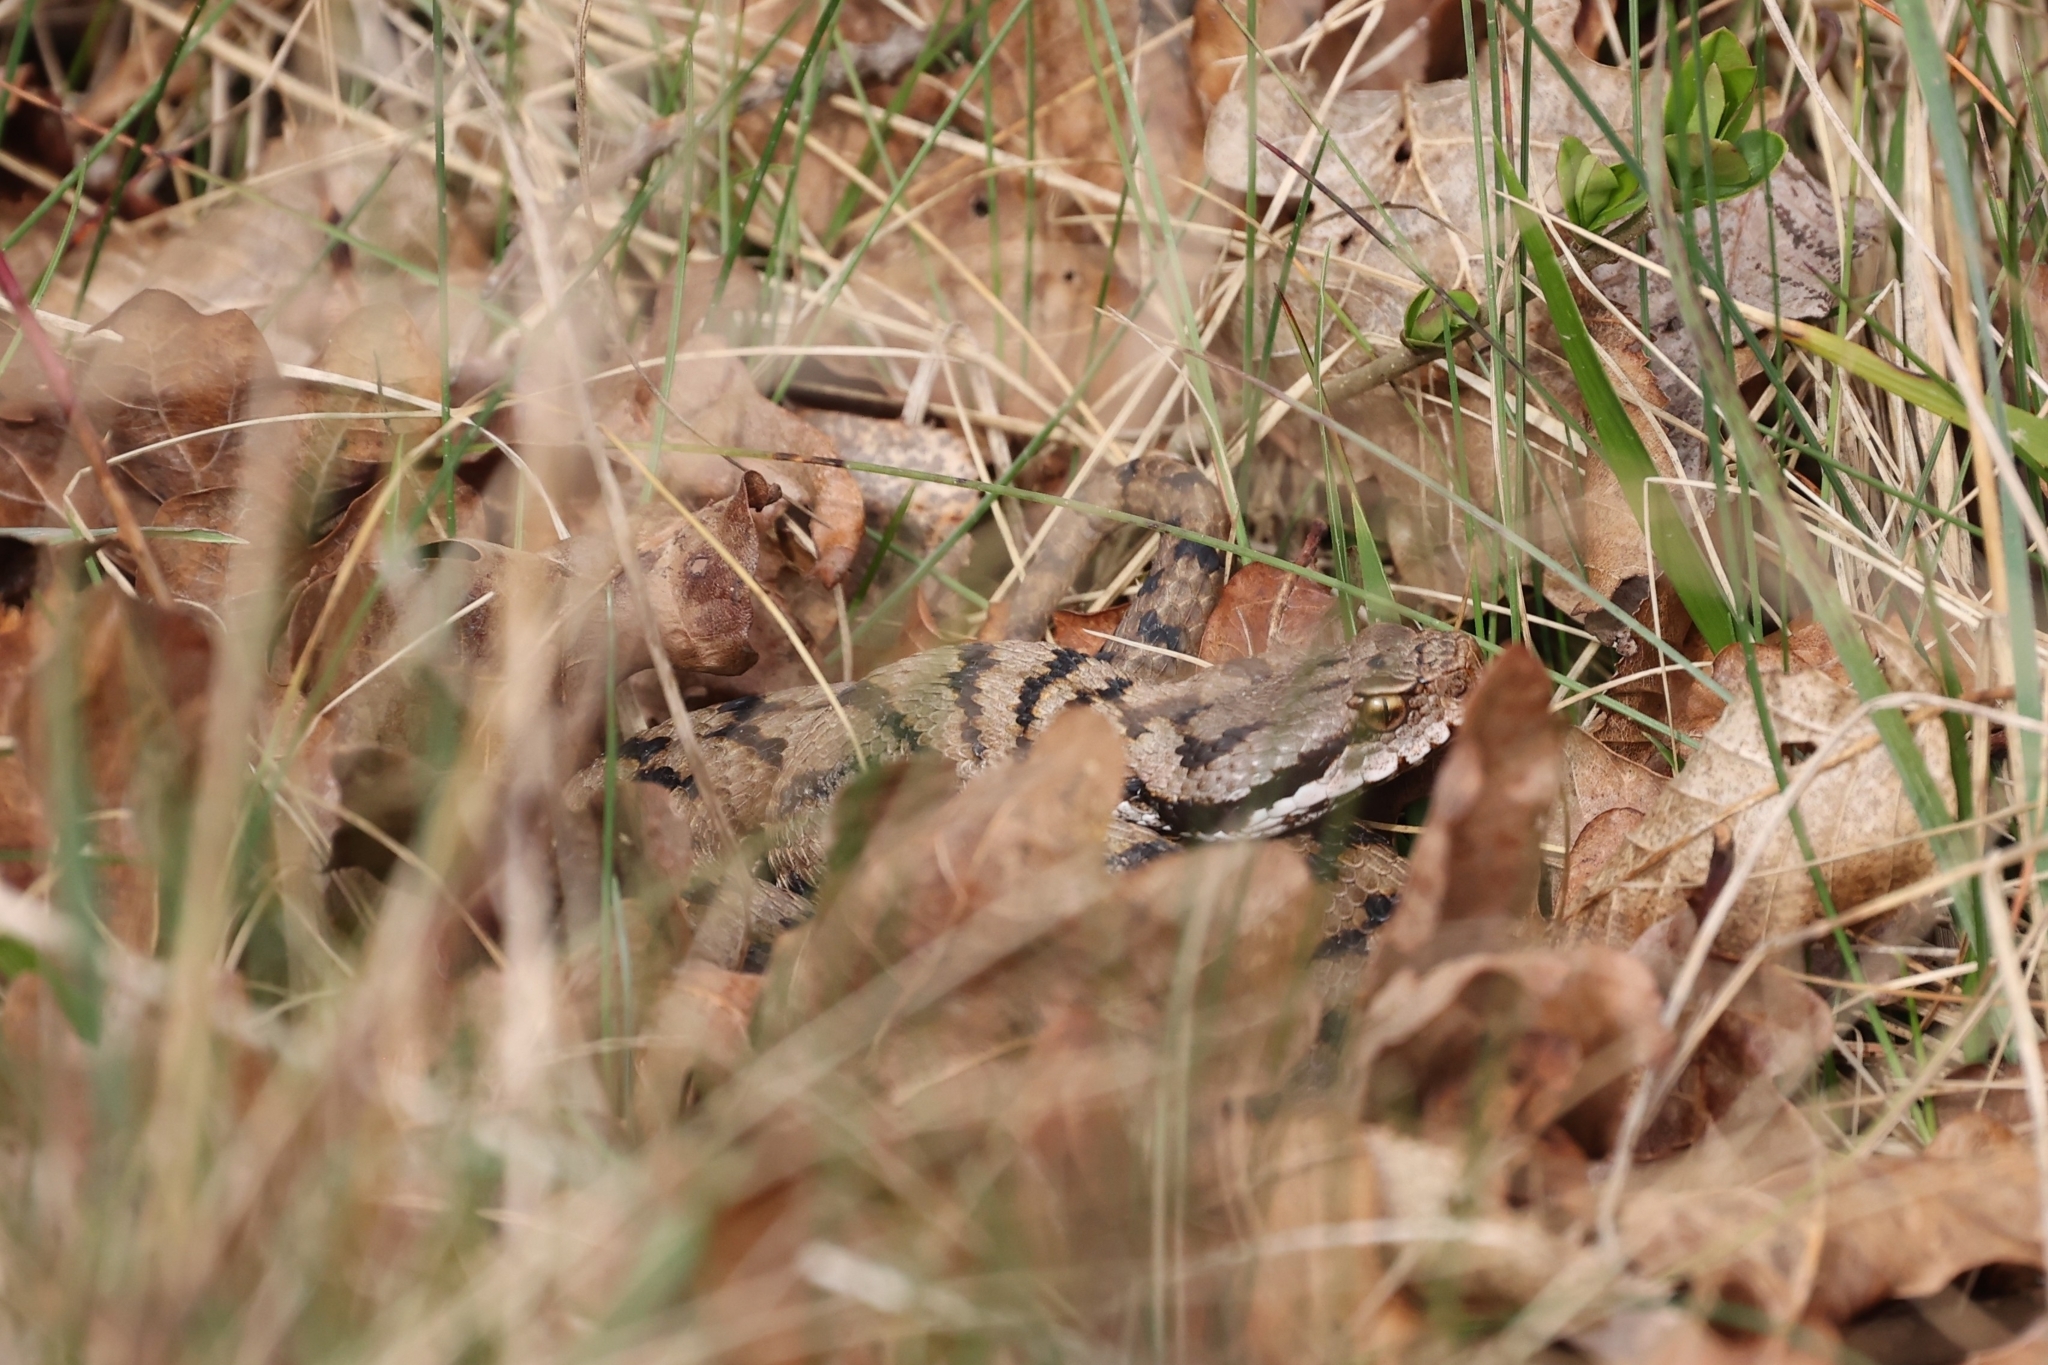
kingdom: Animalia
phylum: Chordata
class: Squamata
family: Viperidae
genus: Vipera
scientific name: Vipera aspis
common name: Asp viper
